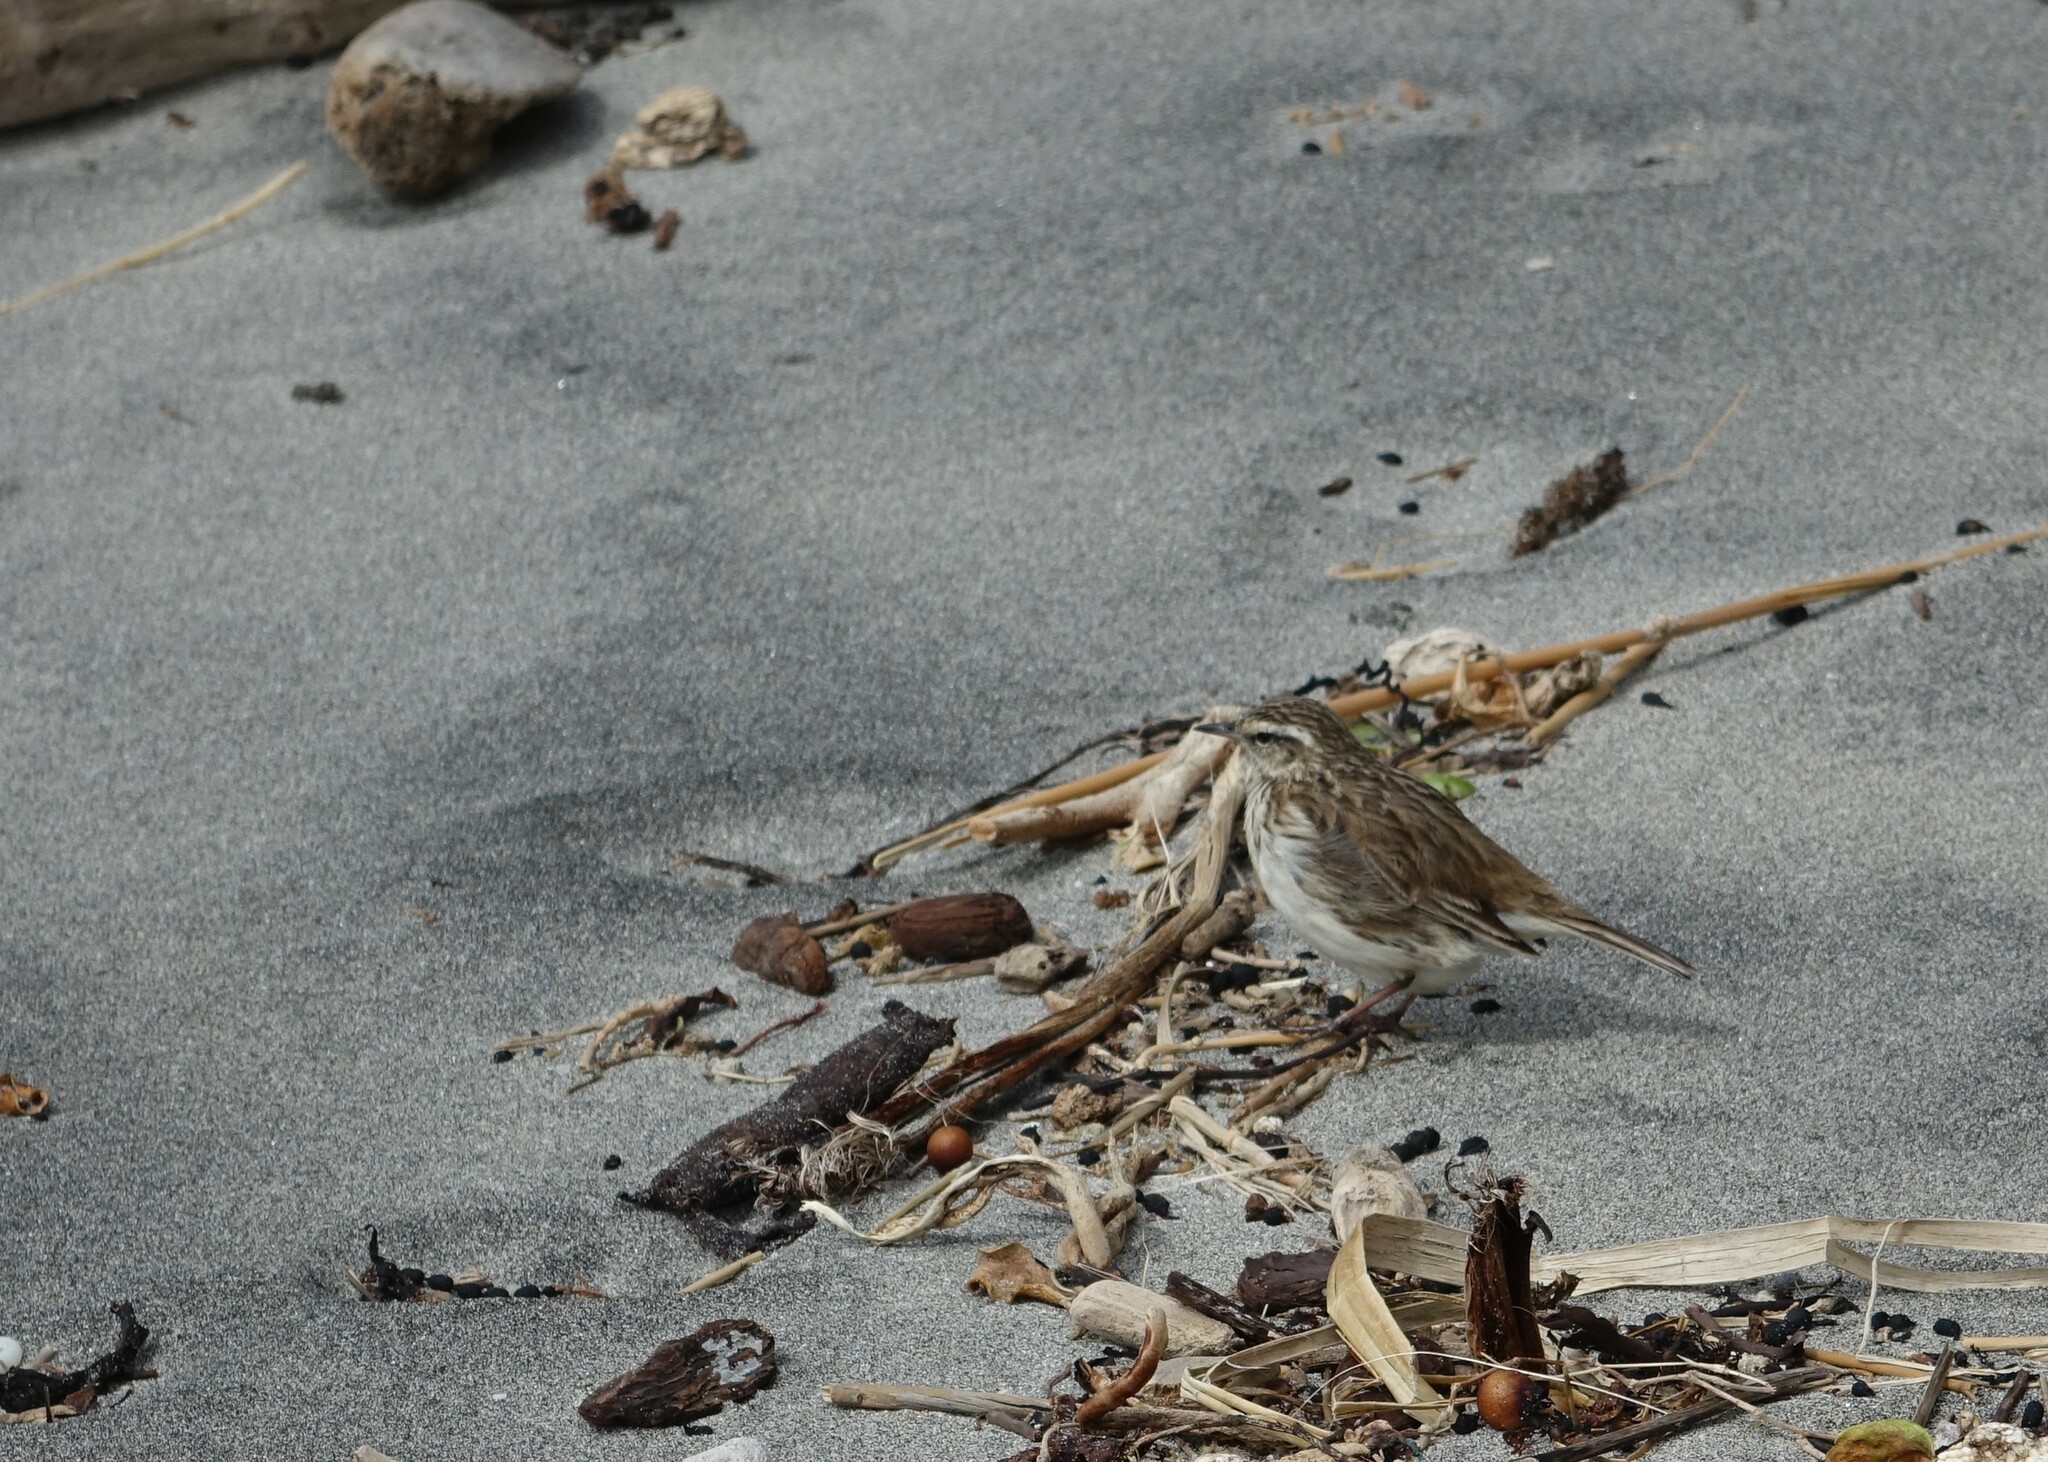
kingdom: Animalia
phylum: Chordata
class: Aves
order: Passeriformes
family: Motacillidae
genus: Anthus
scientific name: Anthus novaeseelandiae
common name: New zealand pipit
